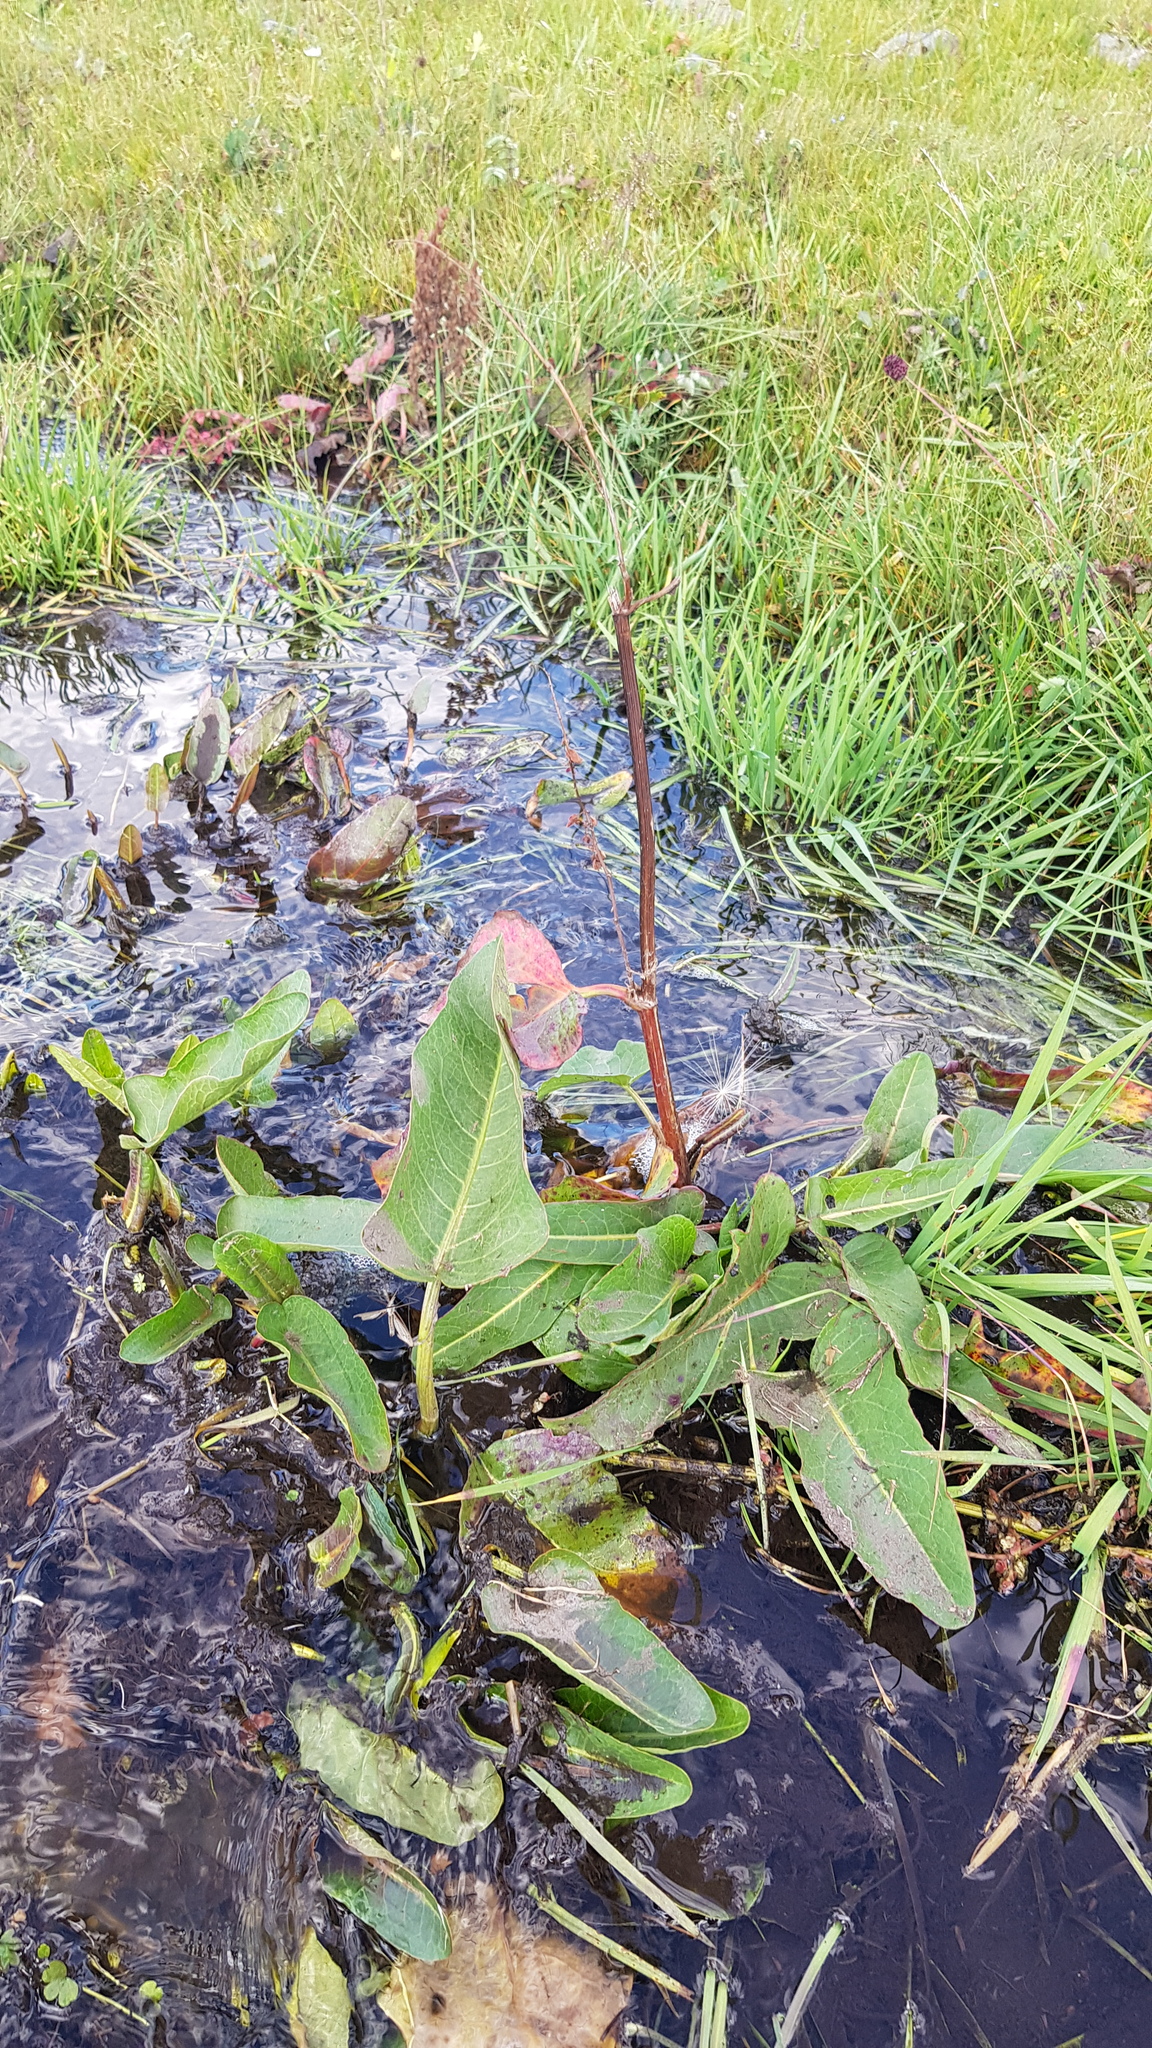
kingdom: Plantae
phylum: Tracheophyta
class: Magnoliopsida
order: Caryophyllales
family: Polygonaceae
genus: Rumex
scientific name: Rumex obtusifolius
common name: Bitter dock
